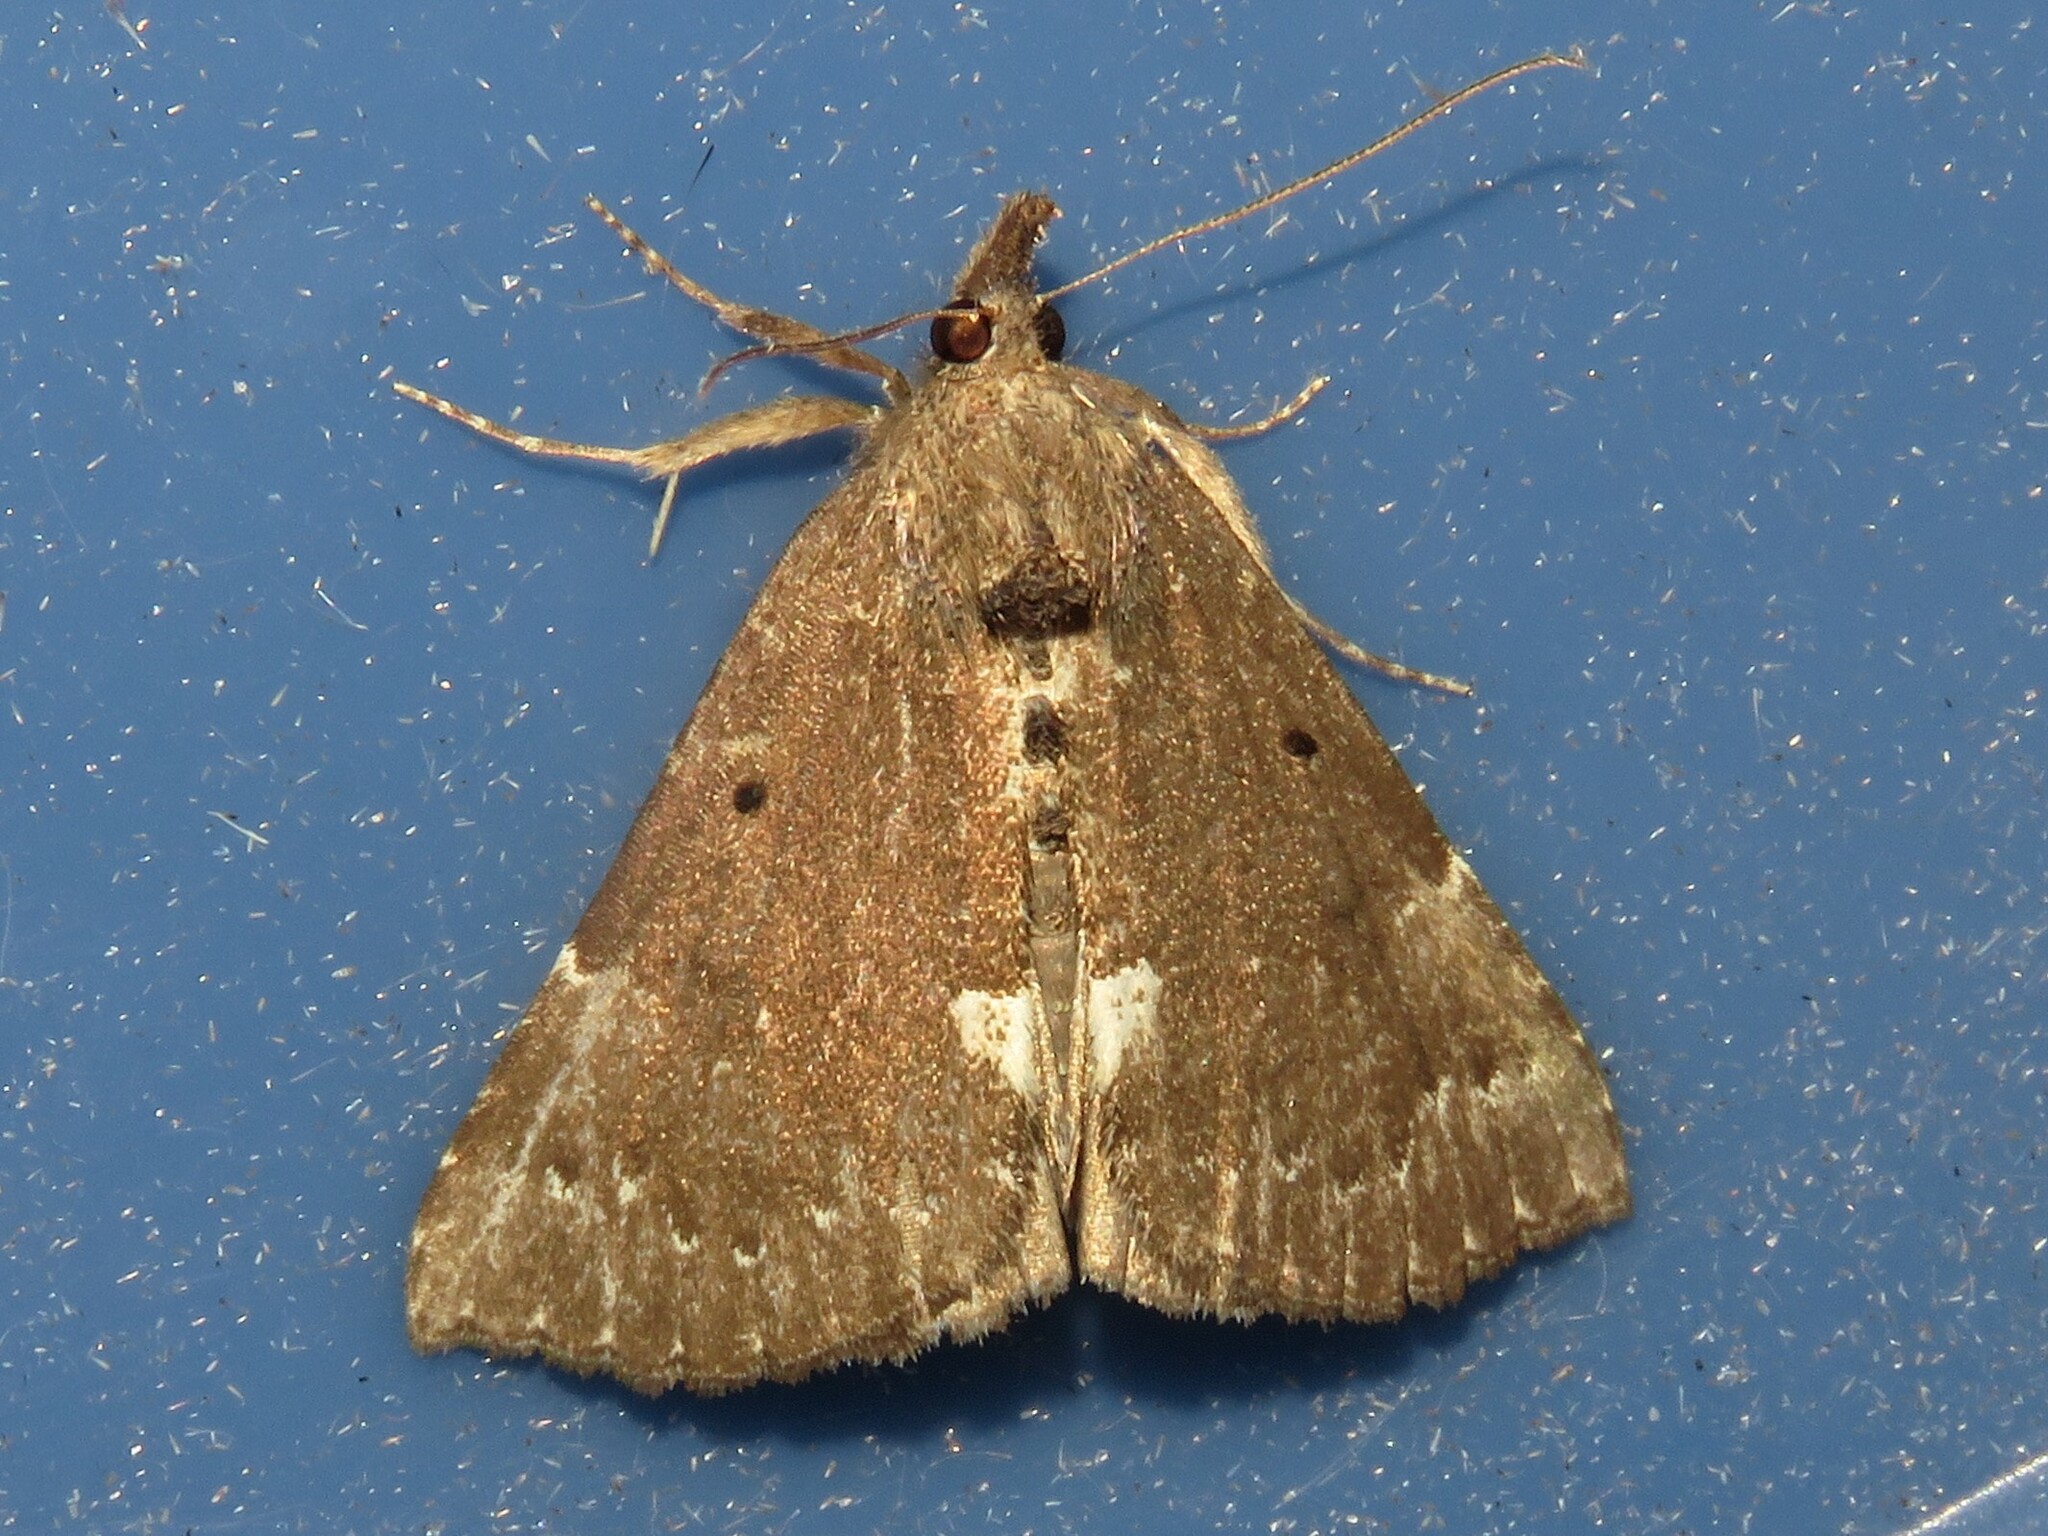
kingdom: Animalia
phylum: Arthropoda
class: Insecta
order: Lepidoptera
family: Erebidae
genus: Hypena
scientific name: Hypena bijugalis
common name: Dimorphic bomolocha moth
